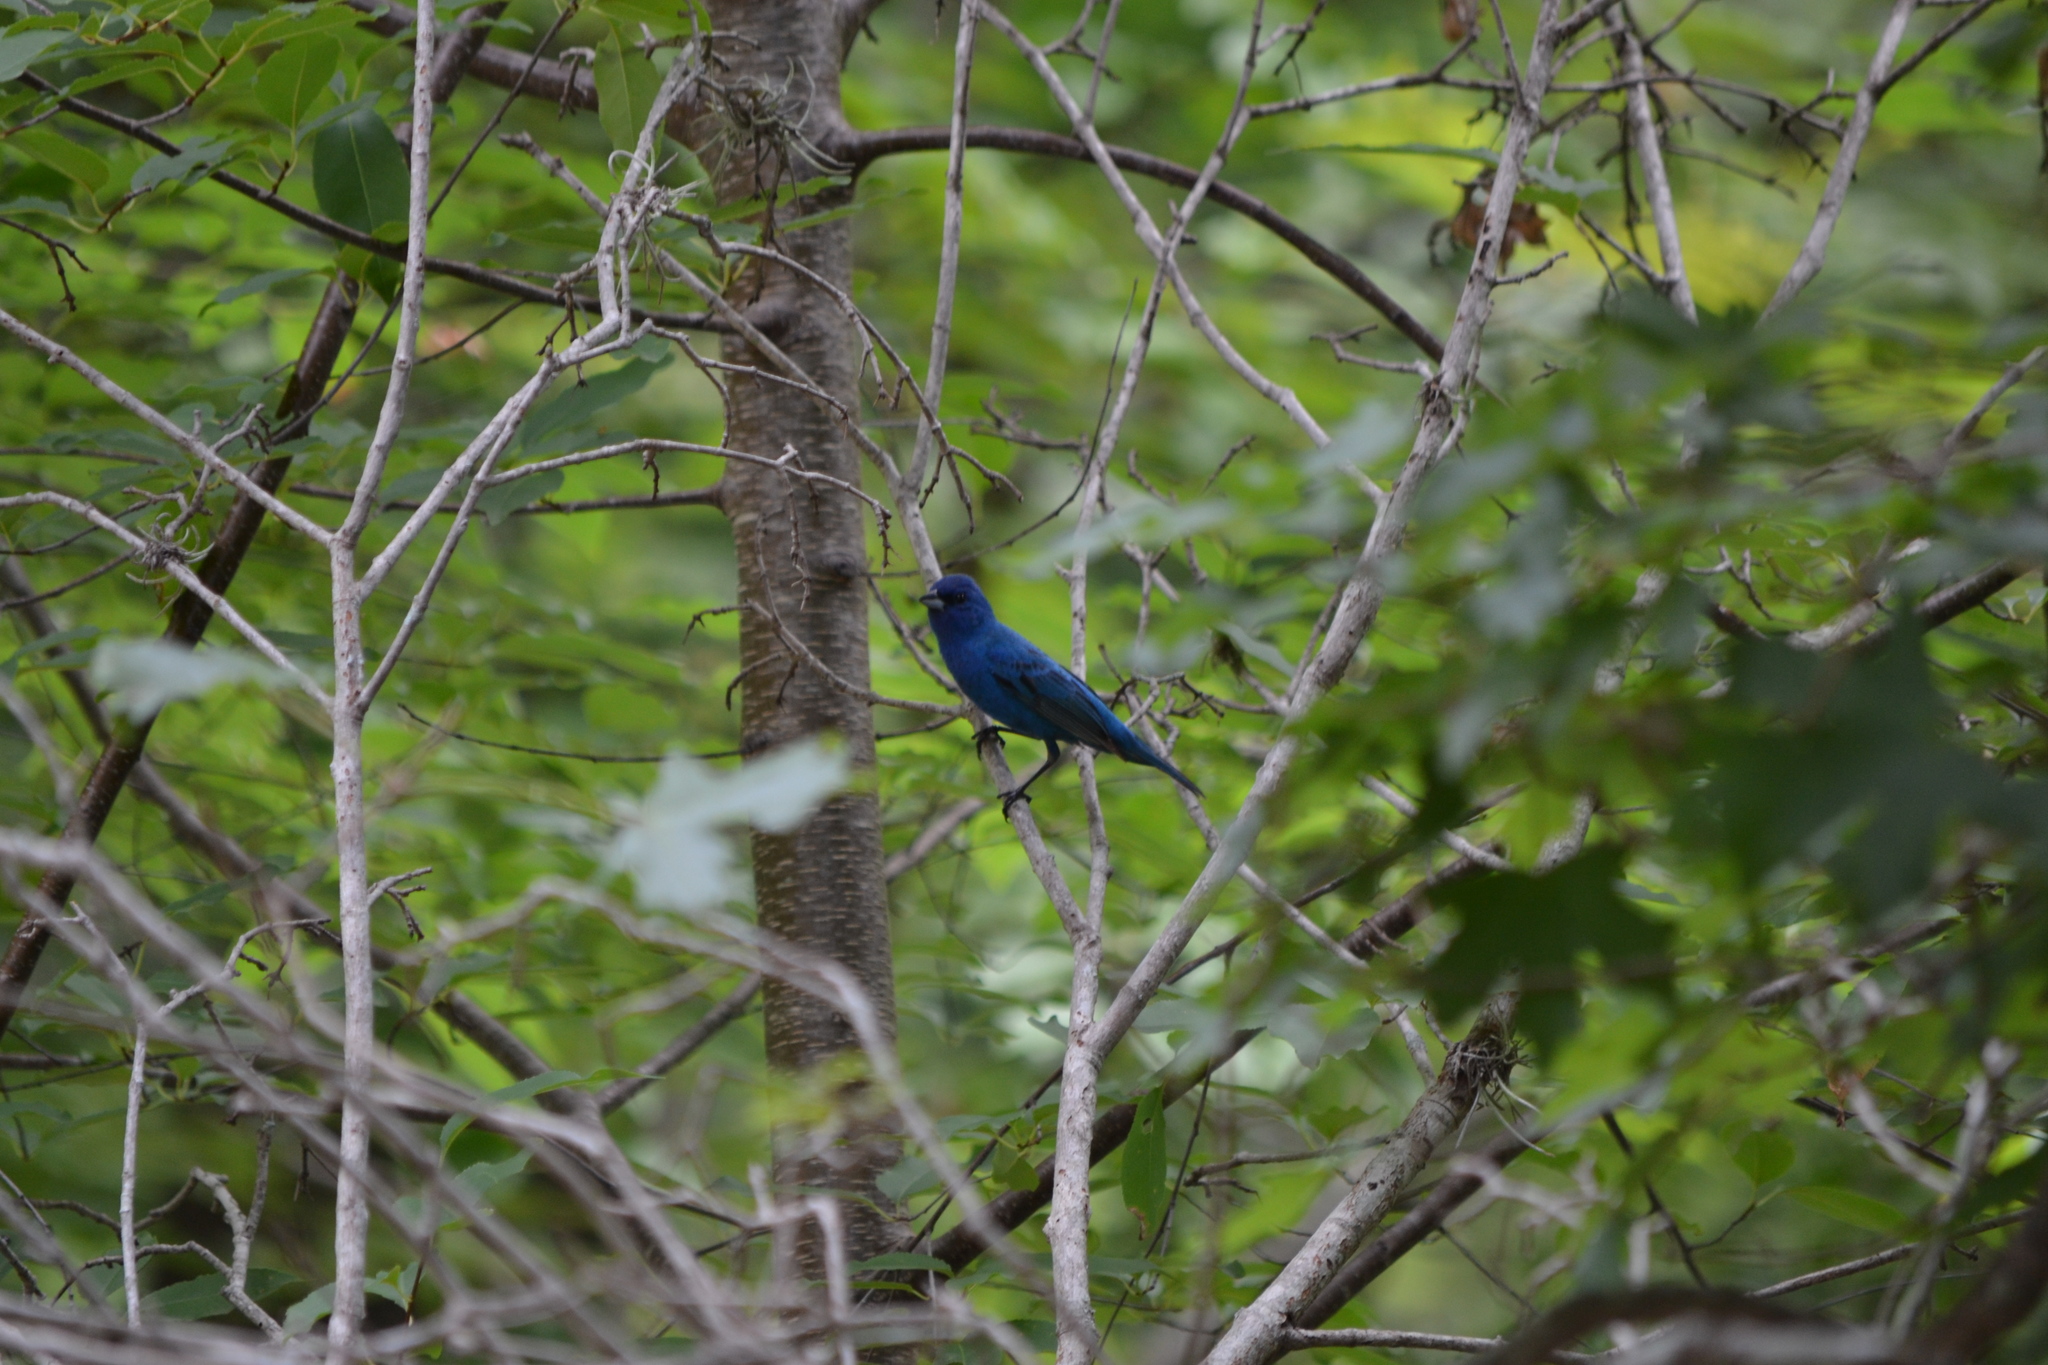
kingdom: Animalia
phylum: Chordata
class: Aves
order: Passeriformes
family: Cardinalidae
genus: Passerina
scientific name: Passerina cyanea
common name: Indigo bunting
